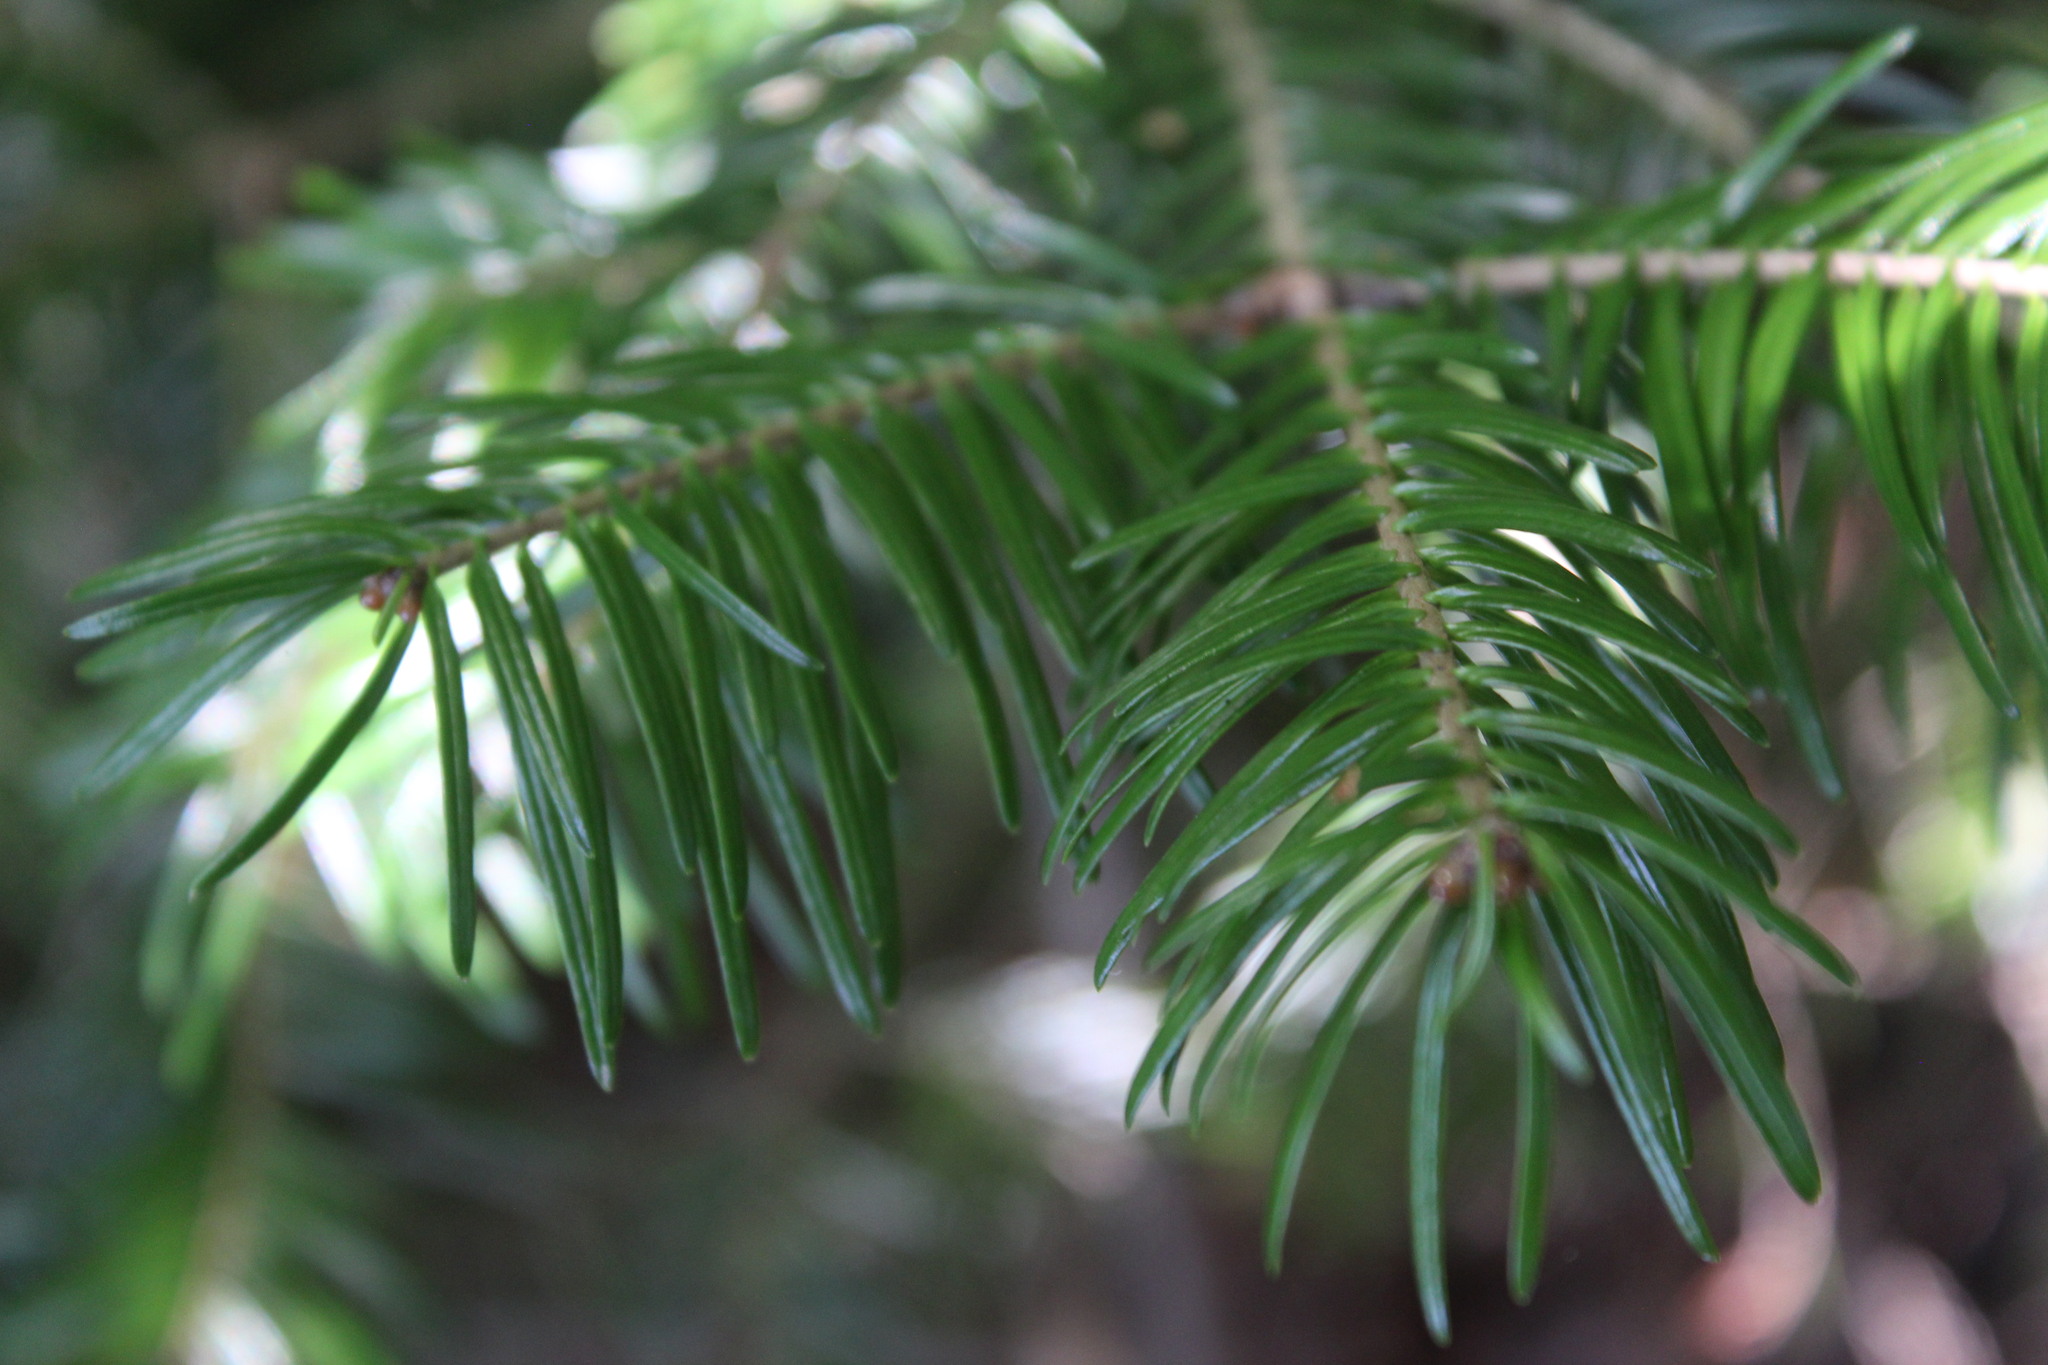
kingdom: Plantae
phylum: Tracheophyta
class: Pinopsida
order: Pinales
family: Pinaceae
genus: Abies
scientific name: Abies balsamea
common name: Balsam fir
